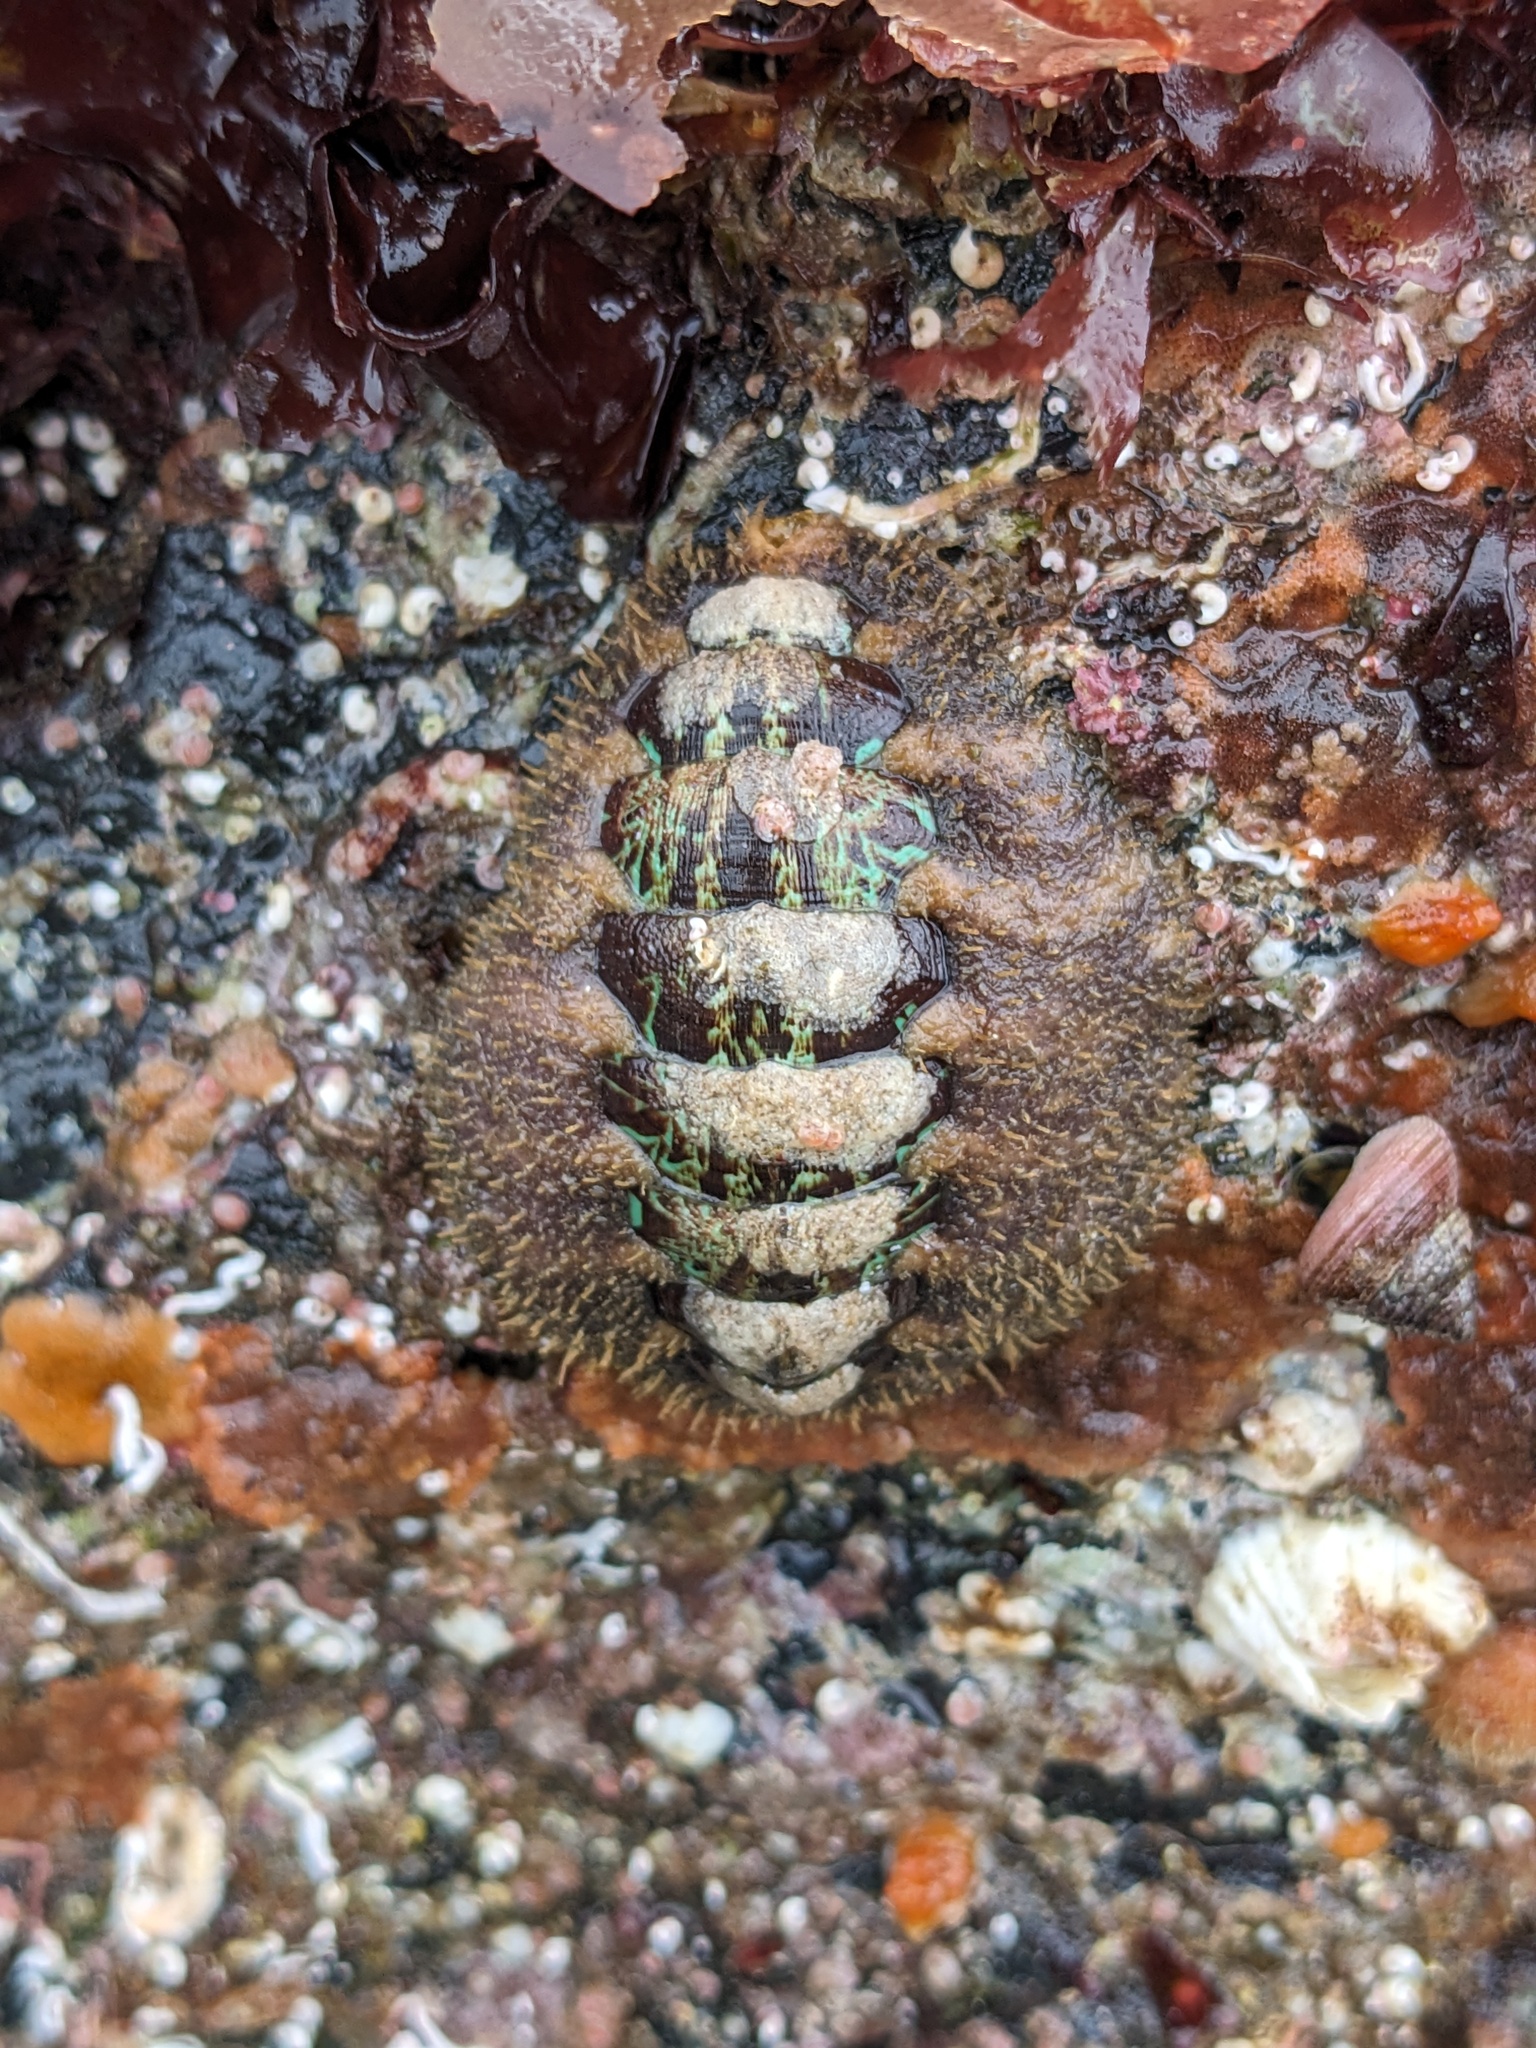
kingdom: Animalia
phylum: Mollusca
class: Polyplacophora
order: Chitonida
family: Mopaliidae
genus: Mopalia
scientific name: Mopalia ciliata
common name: Hairy chiton
